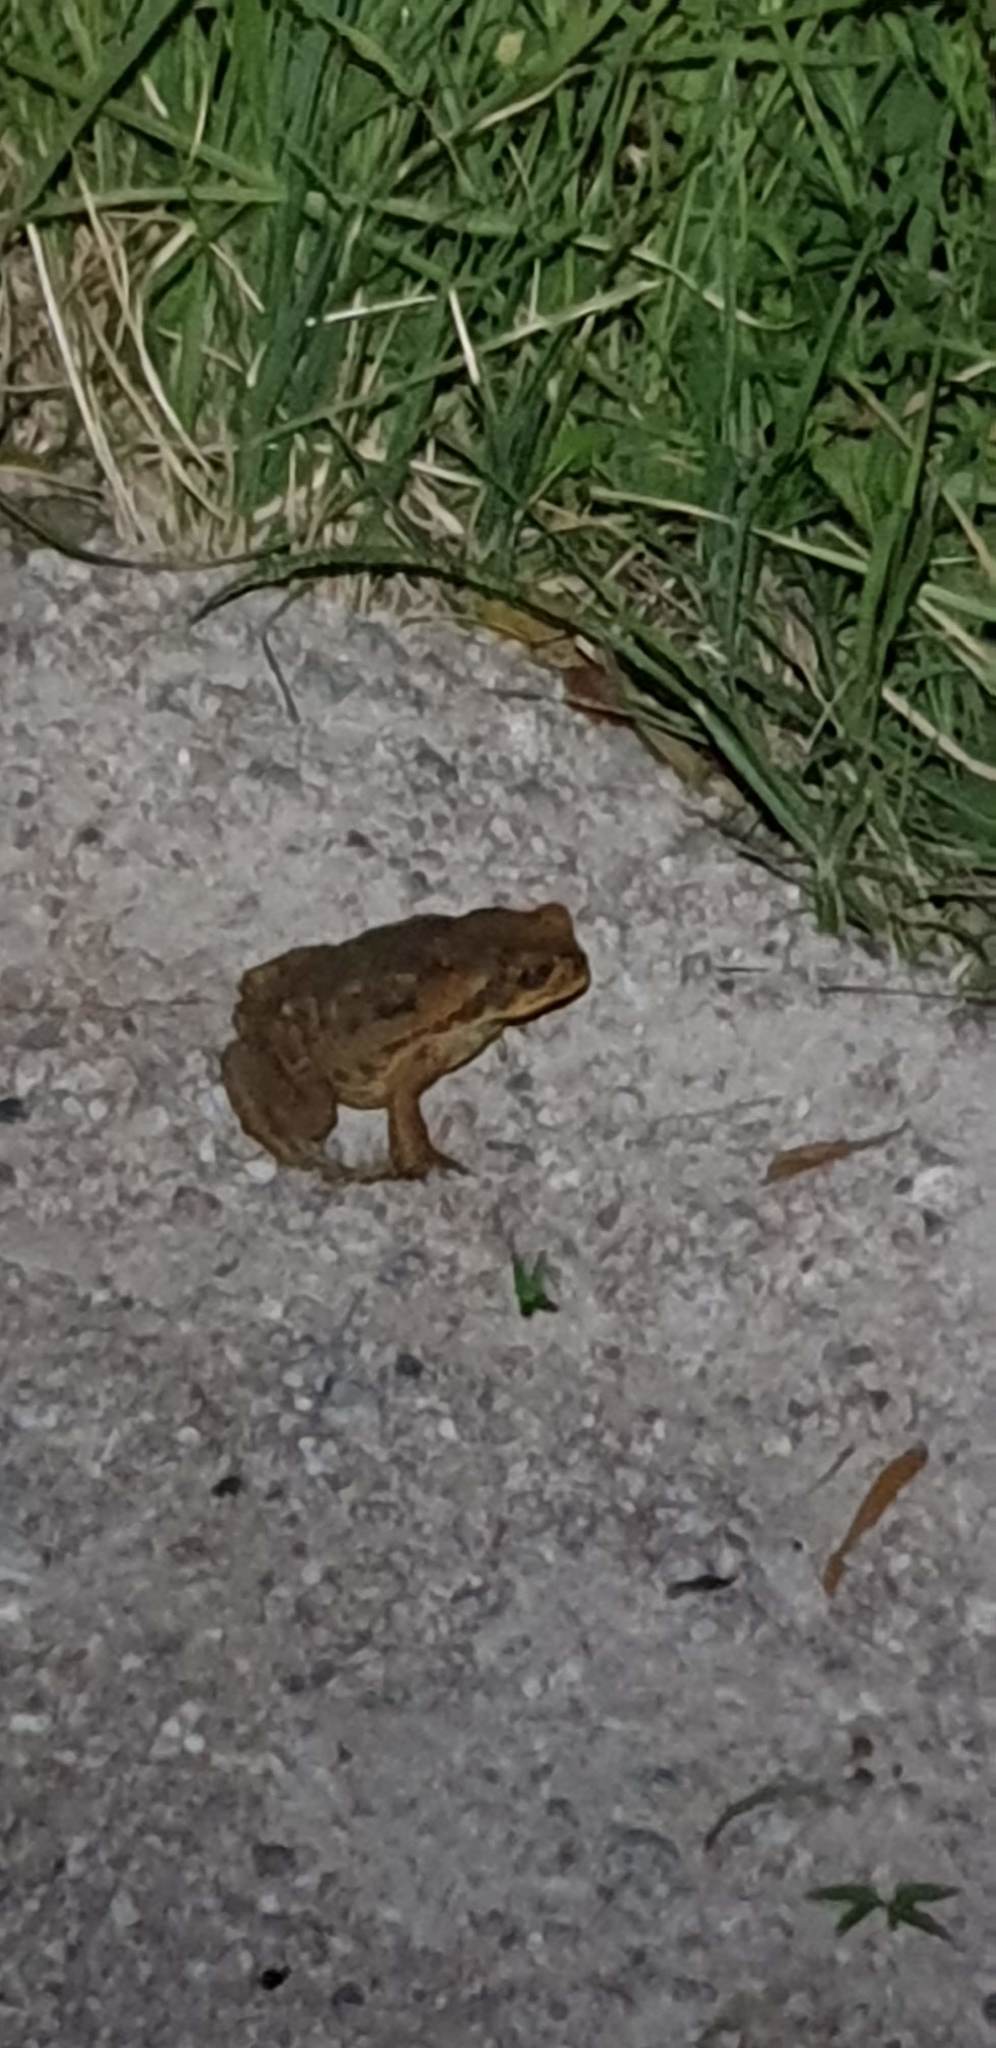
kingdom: Animalia
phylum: Chordata
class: Amphibia
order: Anura
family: Bufonidae
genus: Rhinella
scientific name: Rhinella marina
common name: Cane toad
